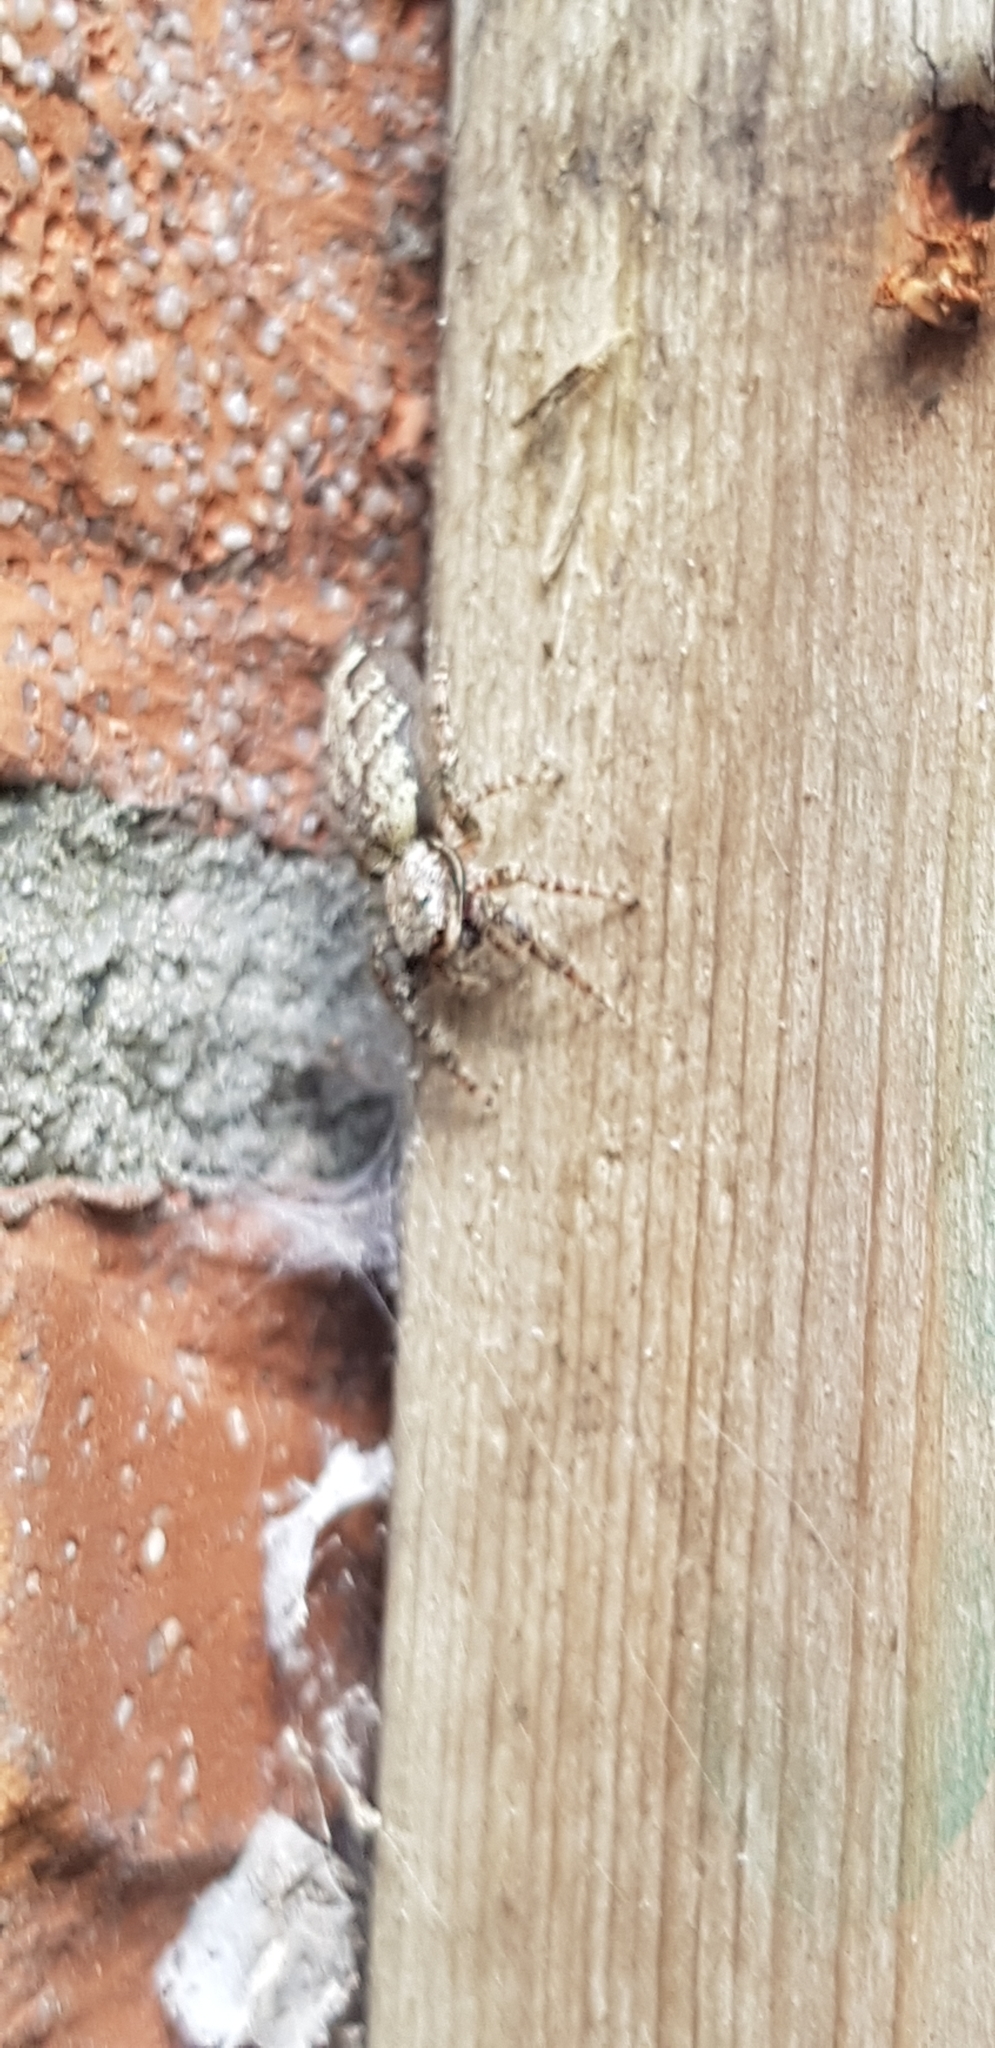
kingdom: Animalia
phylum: Arthropoda
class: Arachnida
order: Araneae
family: Salticidae
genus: Marpissa
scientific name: Marpissa muscosa
